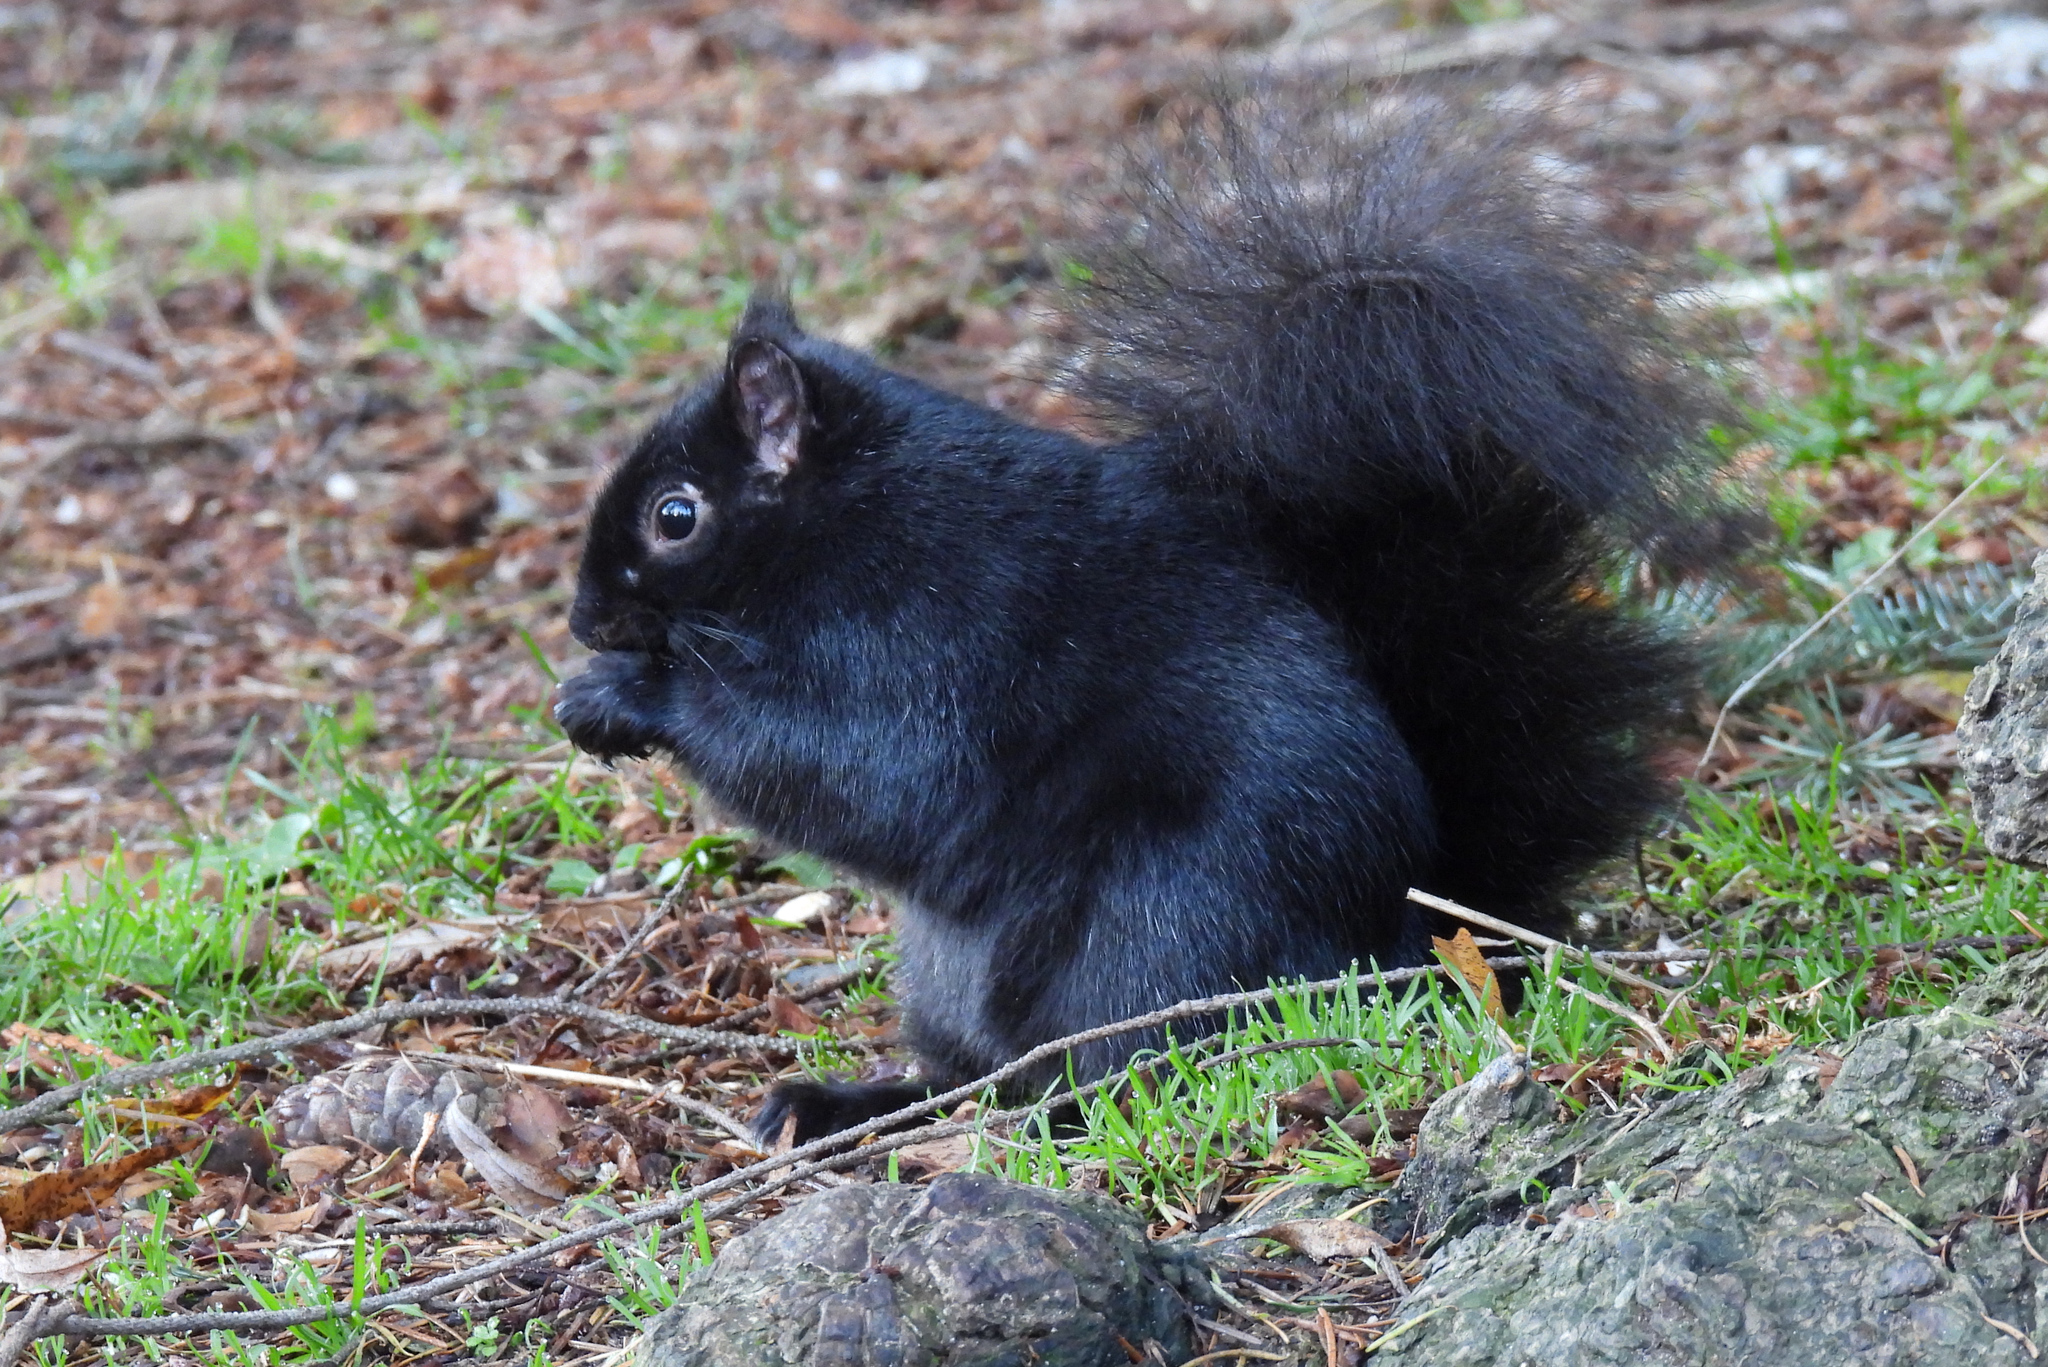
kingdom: Animalia
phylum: Chordata
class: Mammalia
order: Rodentia
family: Sciuridae
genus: Sciurus
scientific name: Sciurus carolinensis
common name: Eastern gray squirrel
